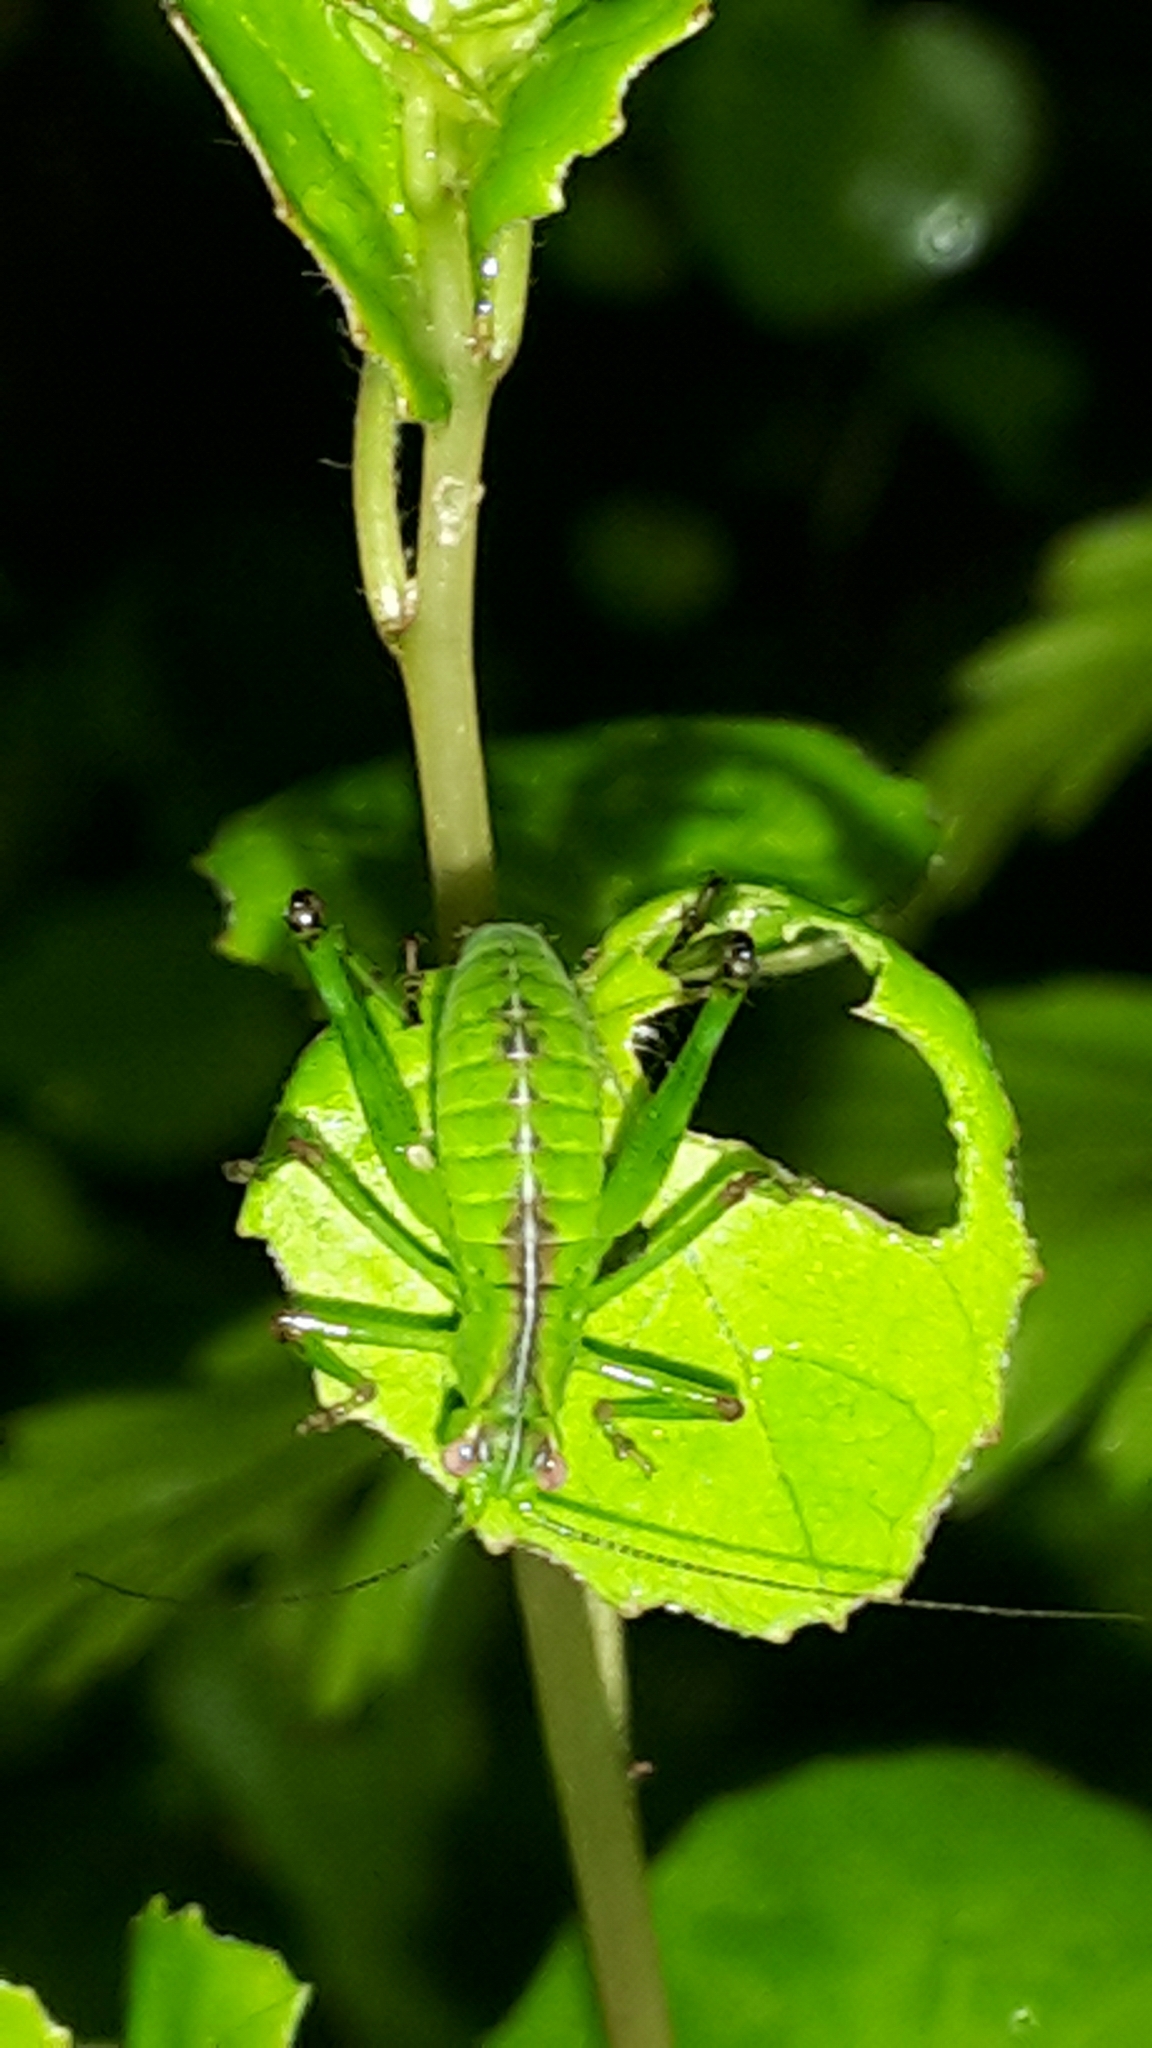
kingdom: Animalia
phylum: Arthropoda
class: Insecta
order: Orthoptera
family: Tettigoniidae
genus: Caedicia
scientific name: Caedicia simplex
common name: Common garden katydid
